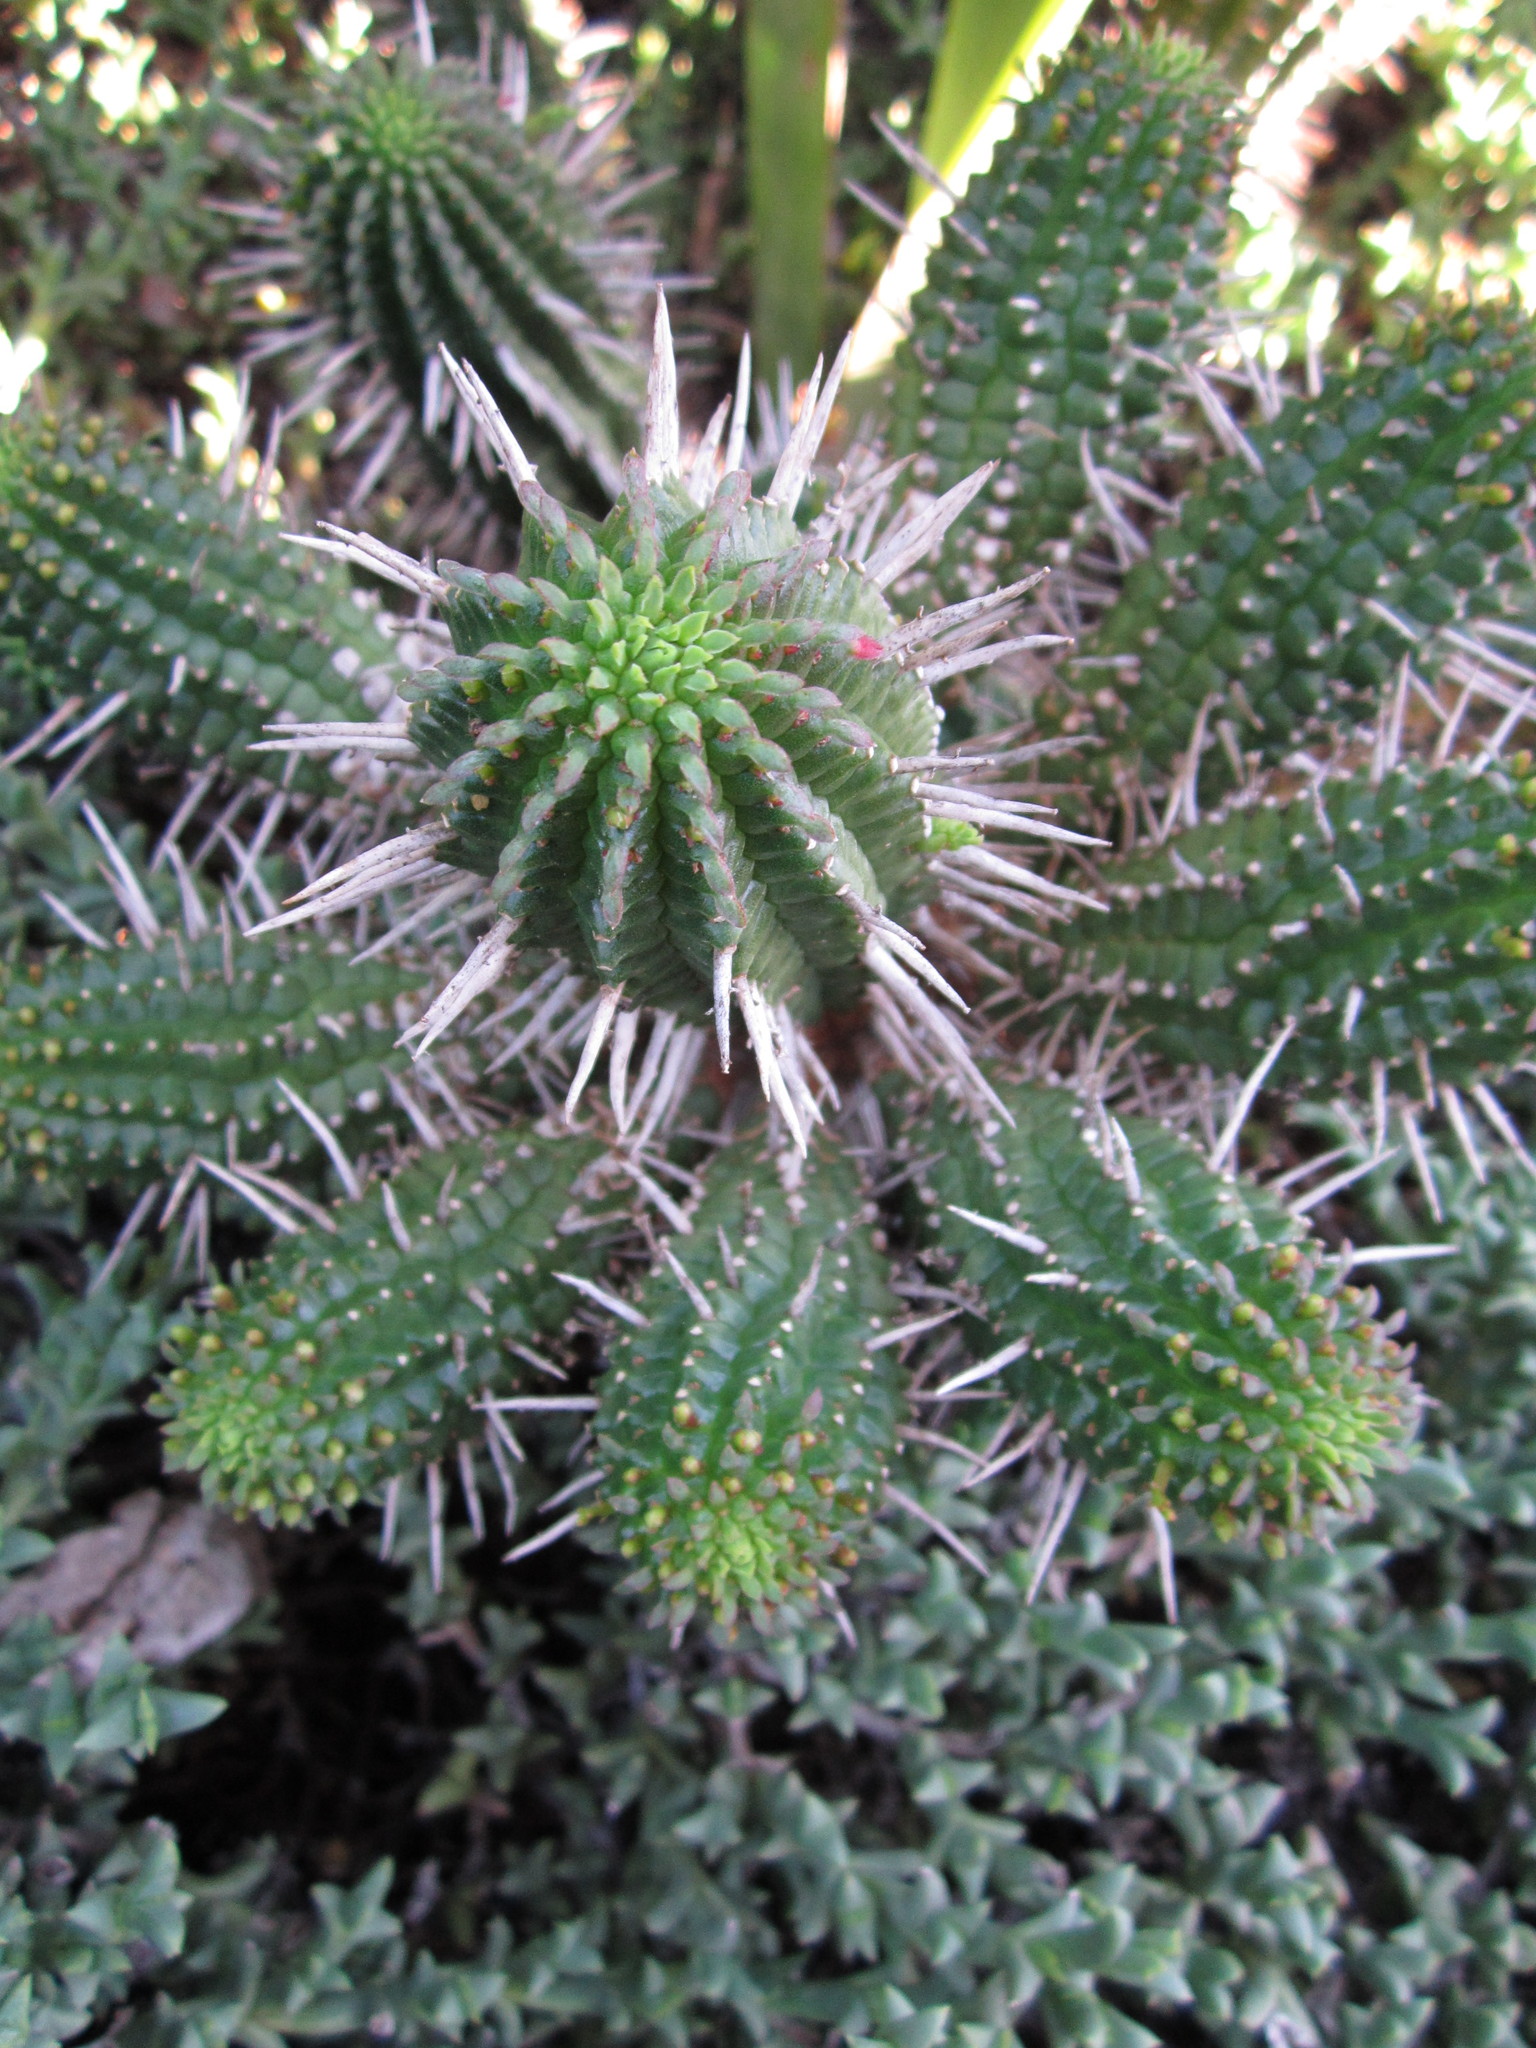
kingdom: Plantae
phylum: Tracheophyta
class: Magnoliopsida
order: Malpighiales
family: Euphorbiaceae
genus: Euphorbia
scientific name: Euphorbia mammillaris
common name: Corkscrew
